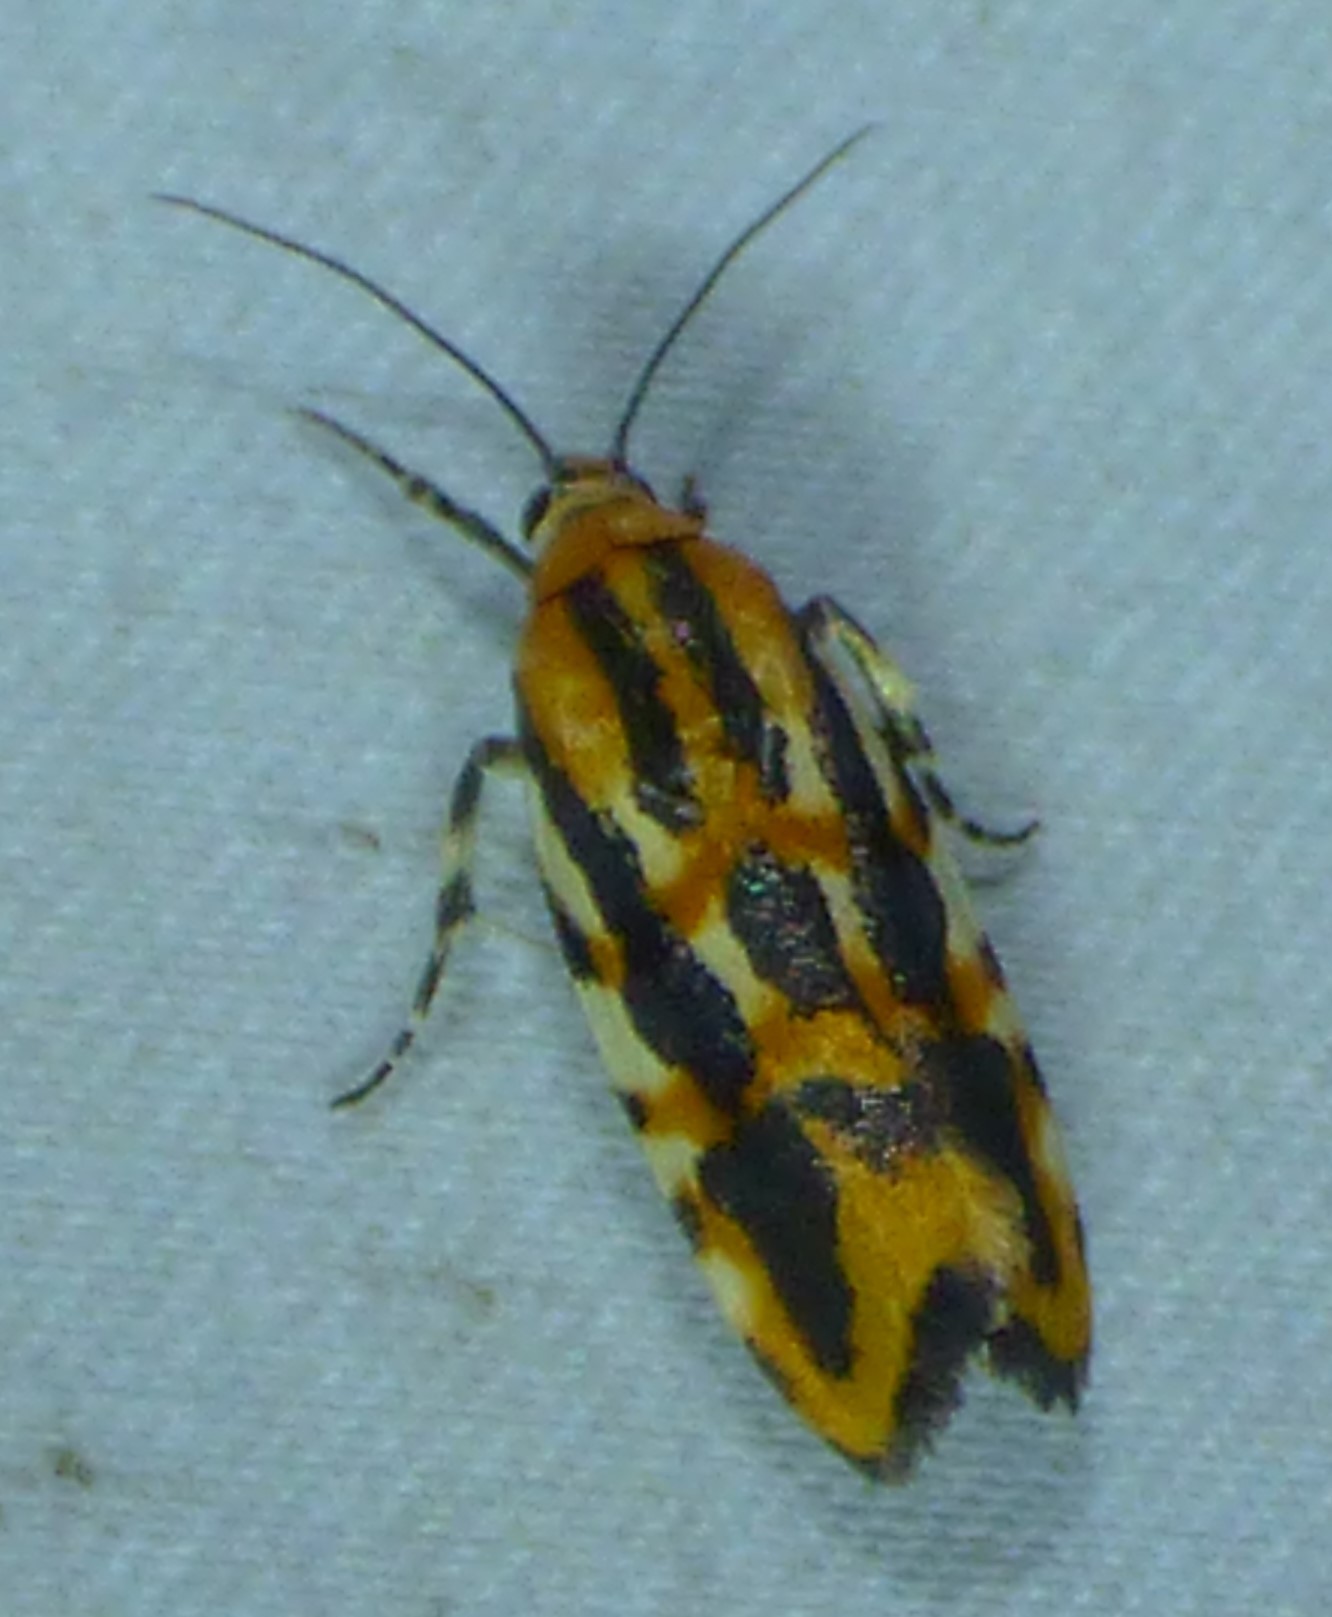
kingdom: Animalia
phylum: Arthropoda
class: Insecta
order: Lepidoptera
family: Noctuidae
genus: Acontia
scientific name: Acontia leo
